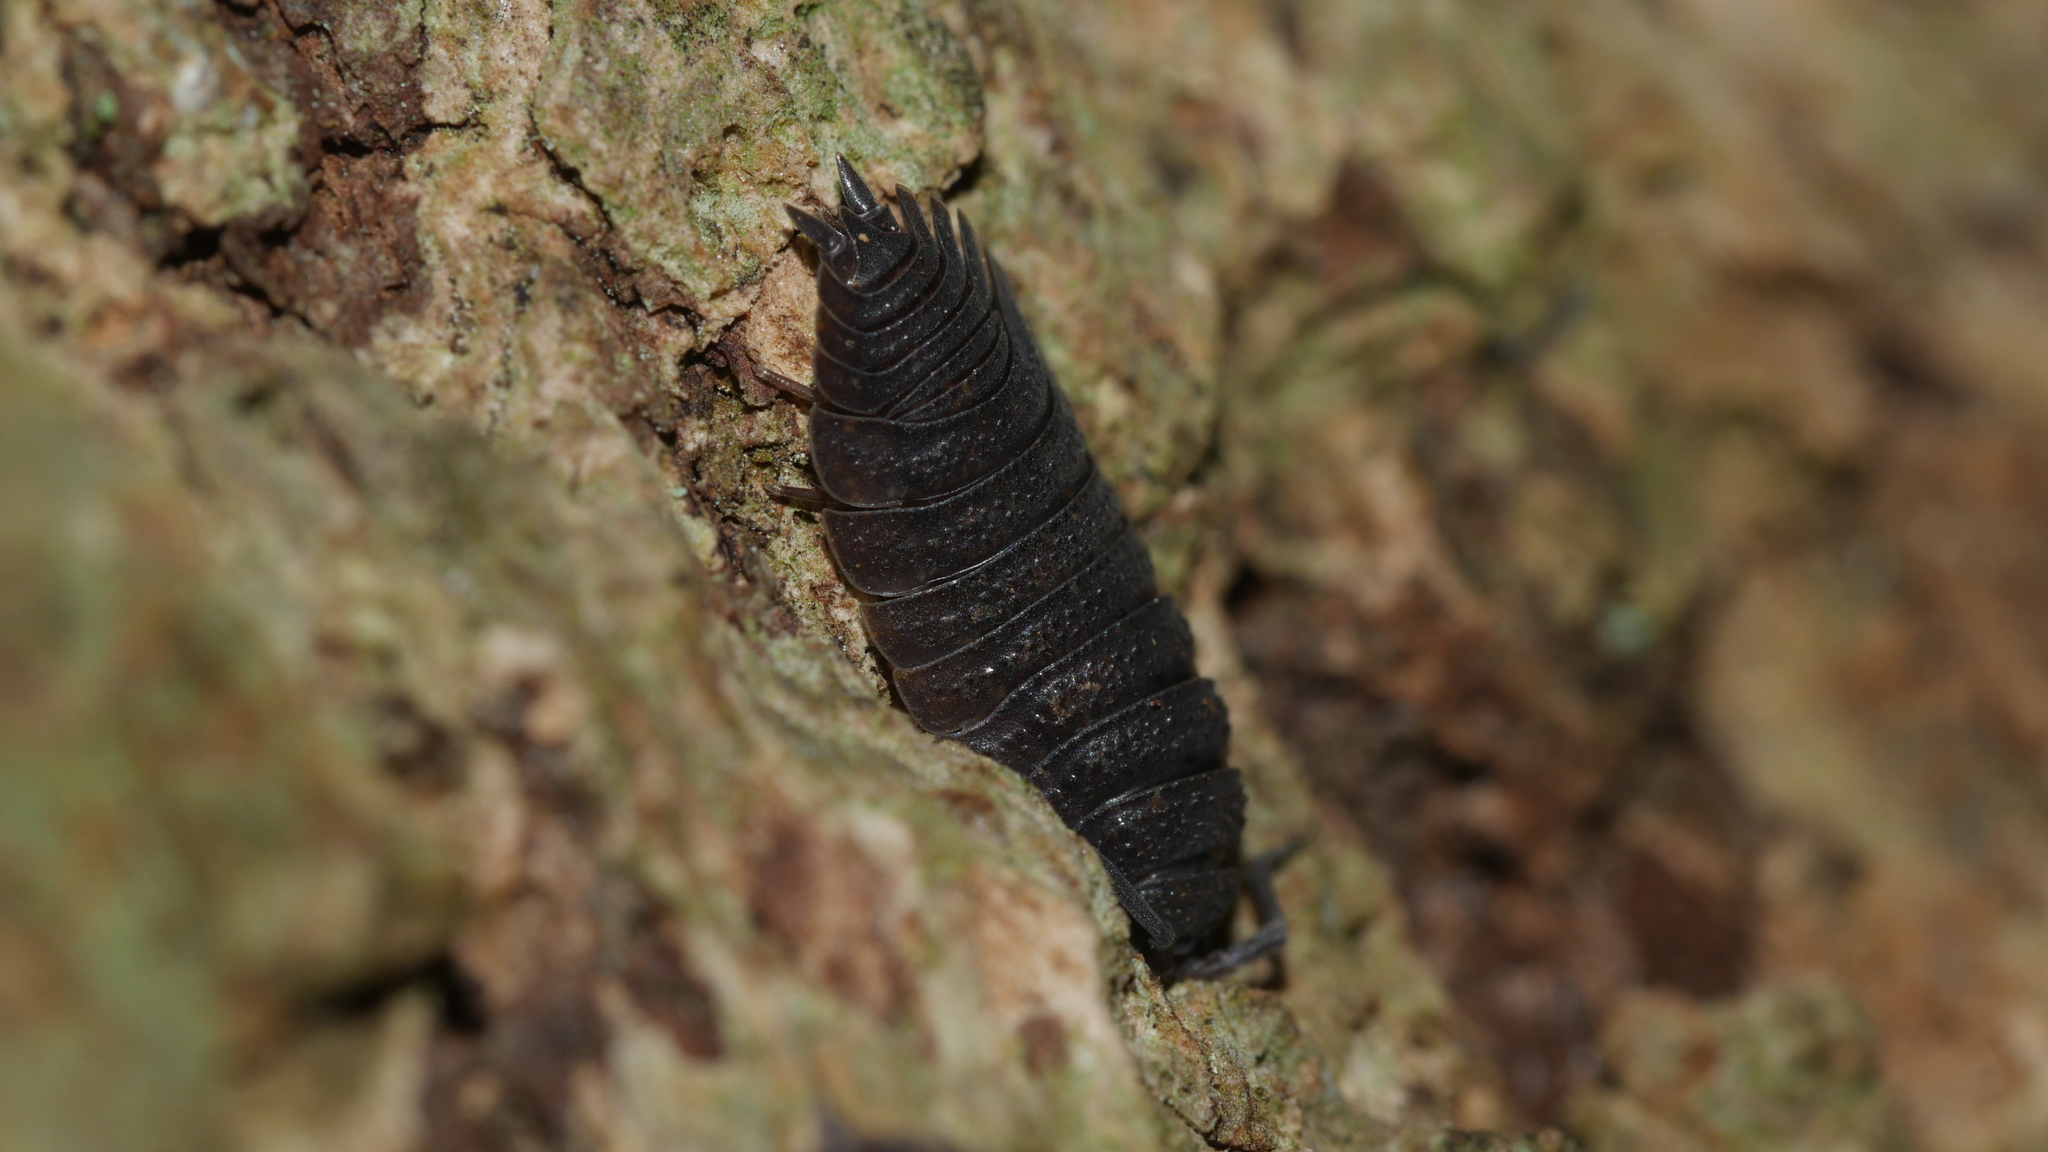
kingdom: Animalia
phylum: Arthropoda
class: Malacostraca
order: Isopoda
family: Porcellionidae
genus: Porcellio
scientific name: Porcellio scaber
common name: Common rough woodlouse
